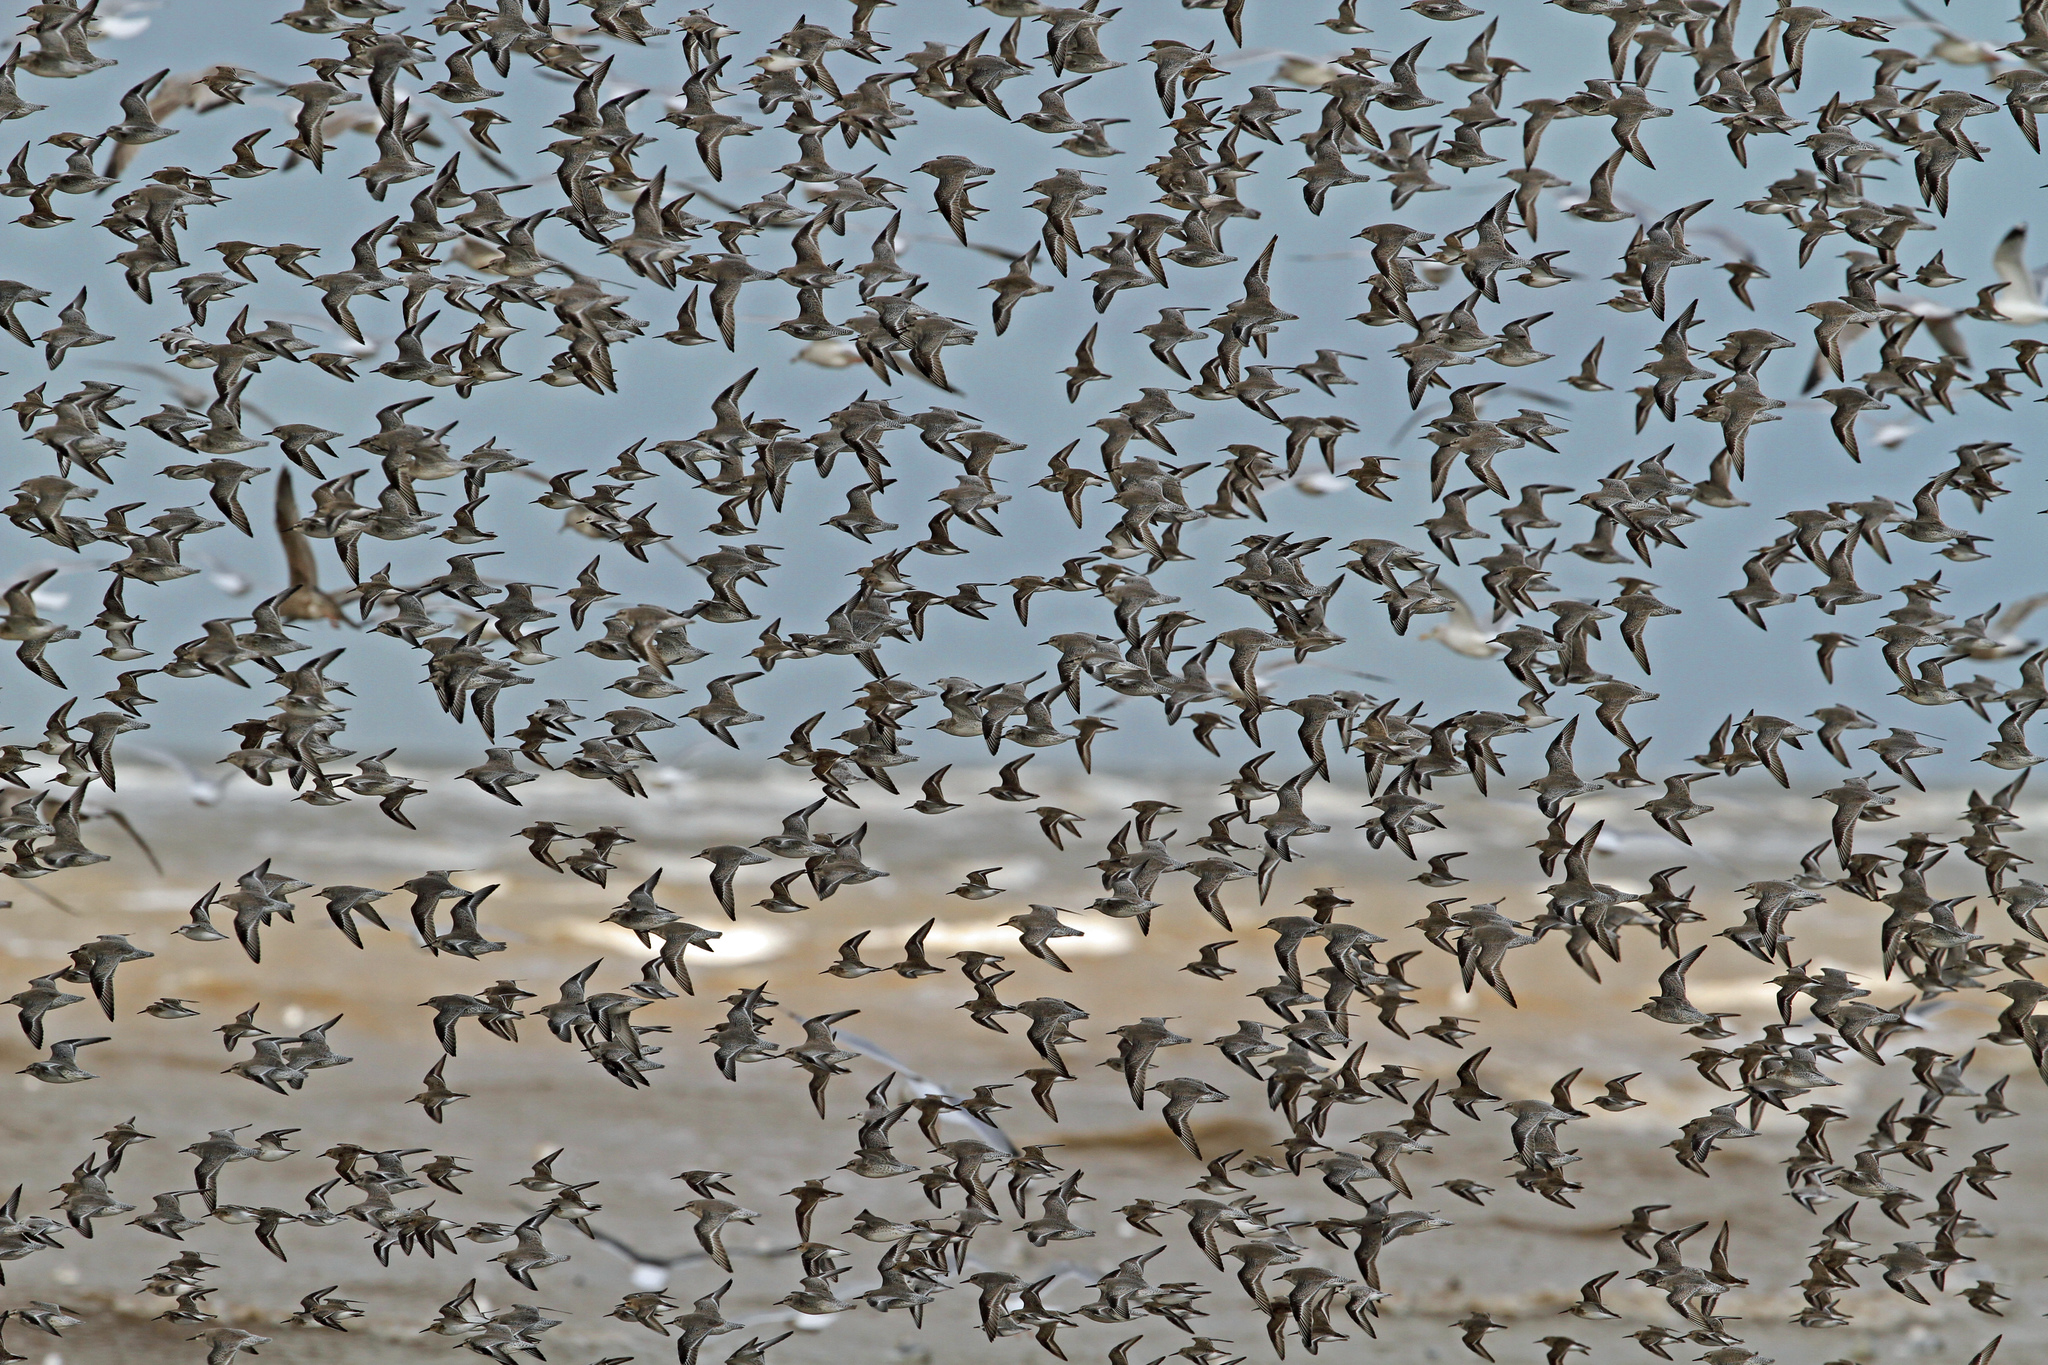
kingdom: Animalia
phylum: Chordata
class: Aves
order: Charadriiformes
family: Scolopacidae
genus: Calidris
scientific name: Calidris canutus
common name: Red knot
